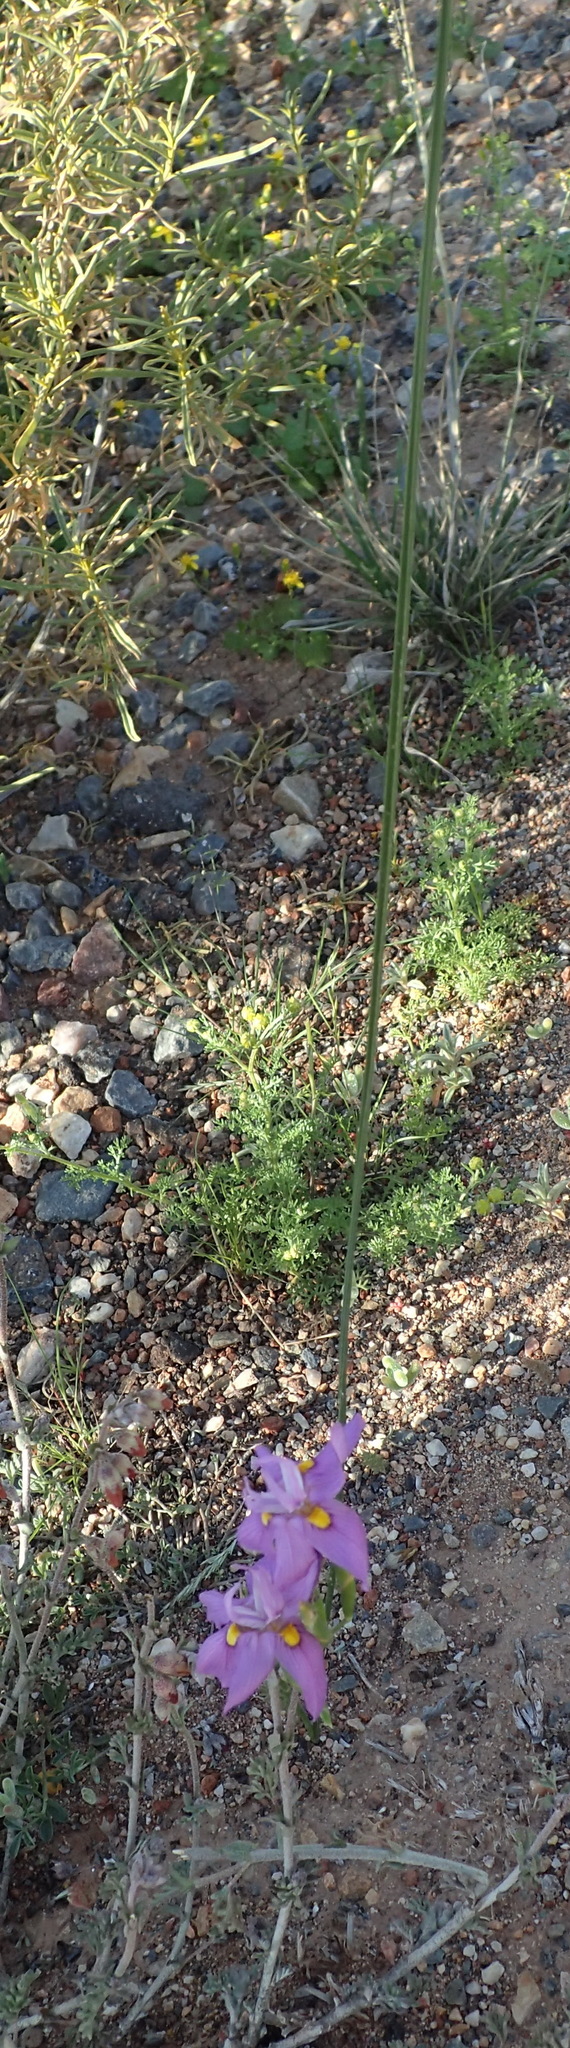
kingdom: Plantae
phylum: Tracheophyta
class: Liliopsida
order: Asparagales
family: Iridaceae
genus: Moraea
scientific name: Moraea bipartita
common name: Blue tulp
